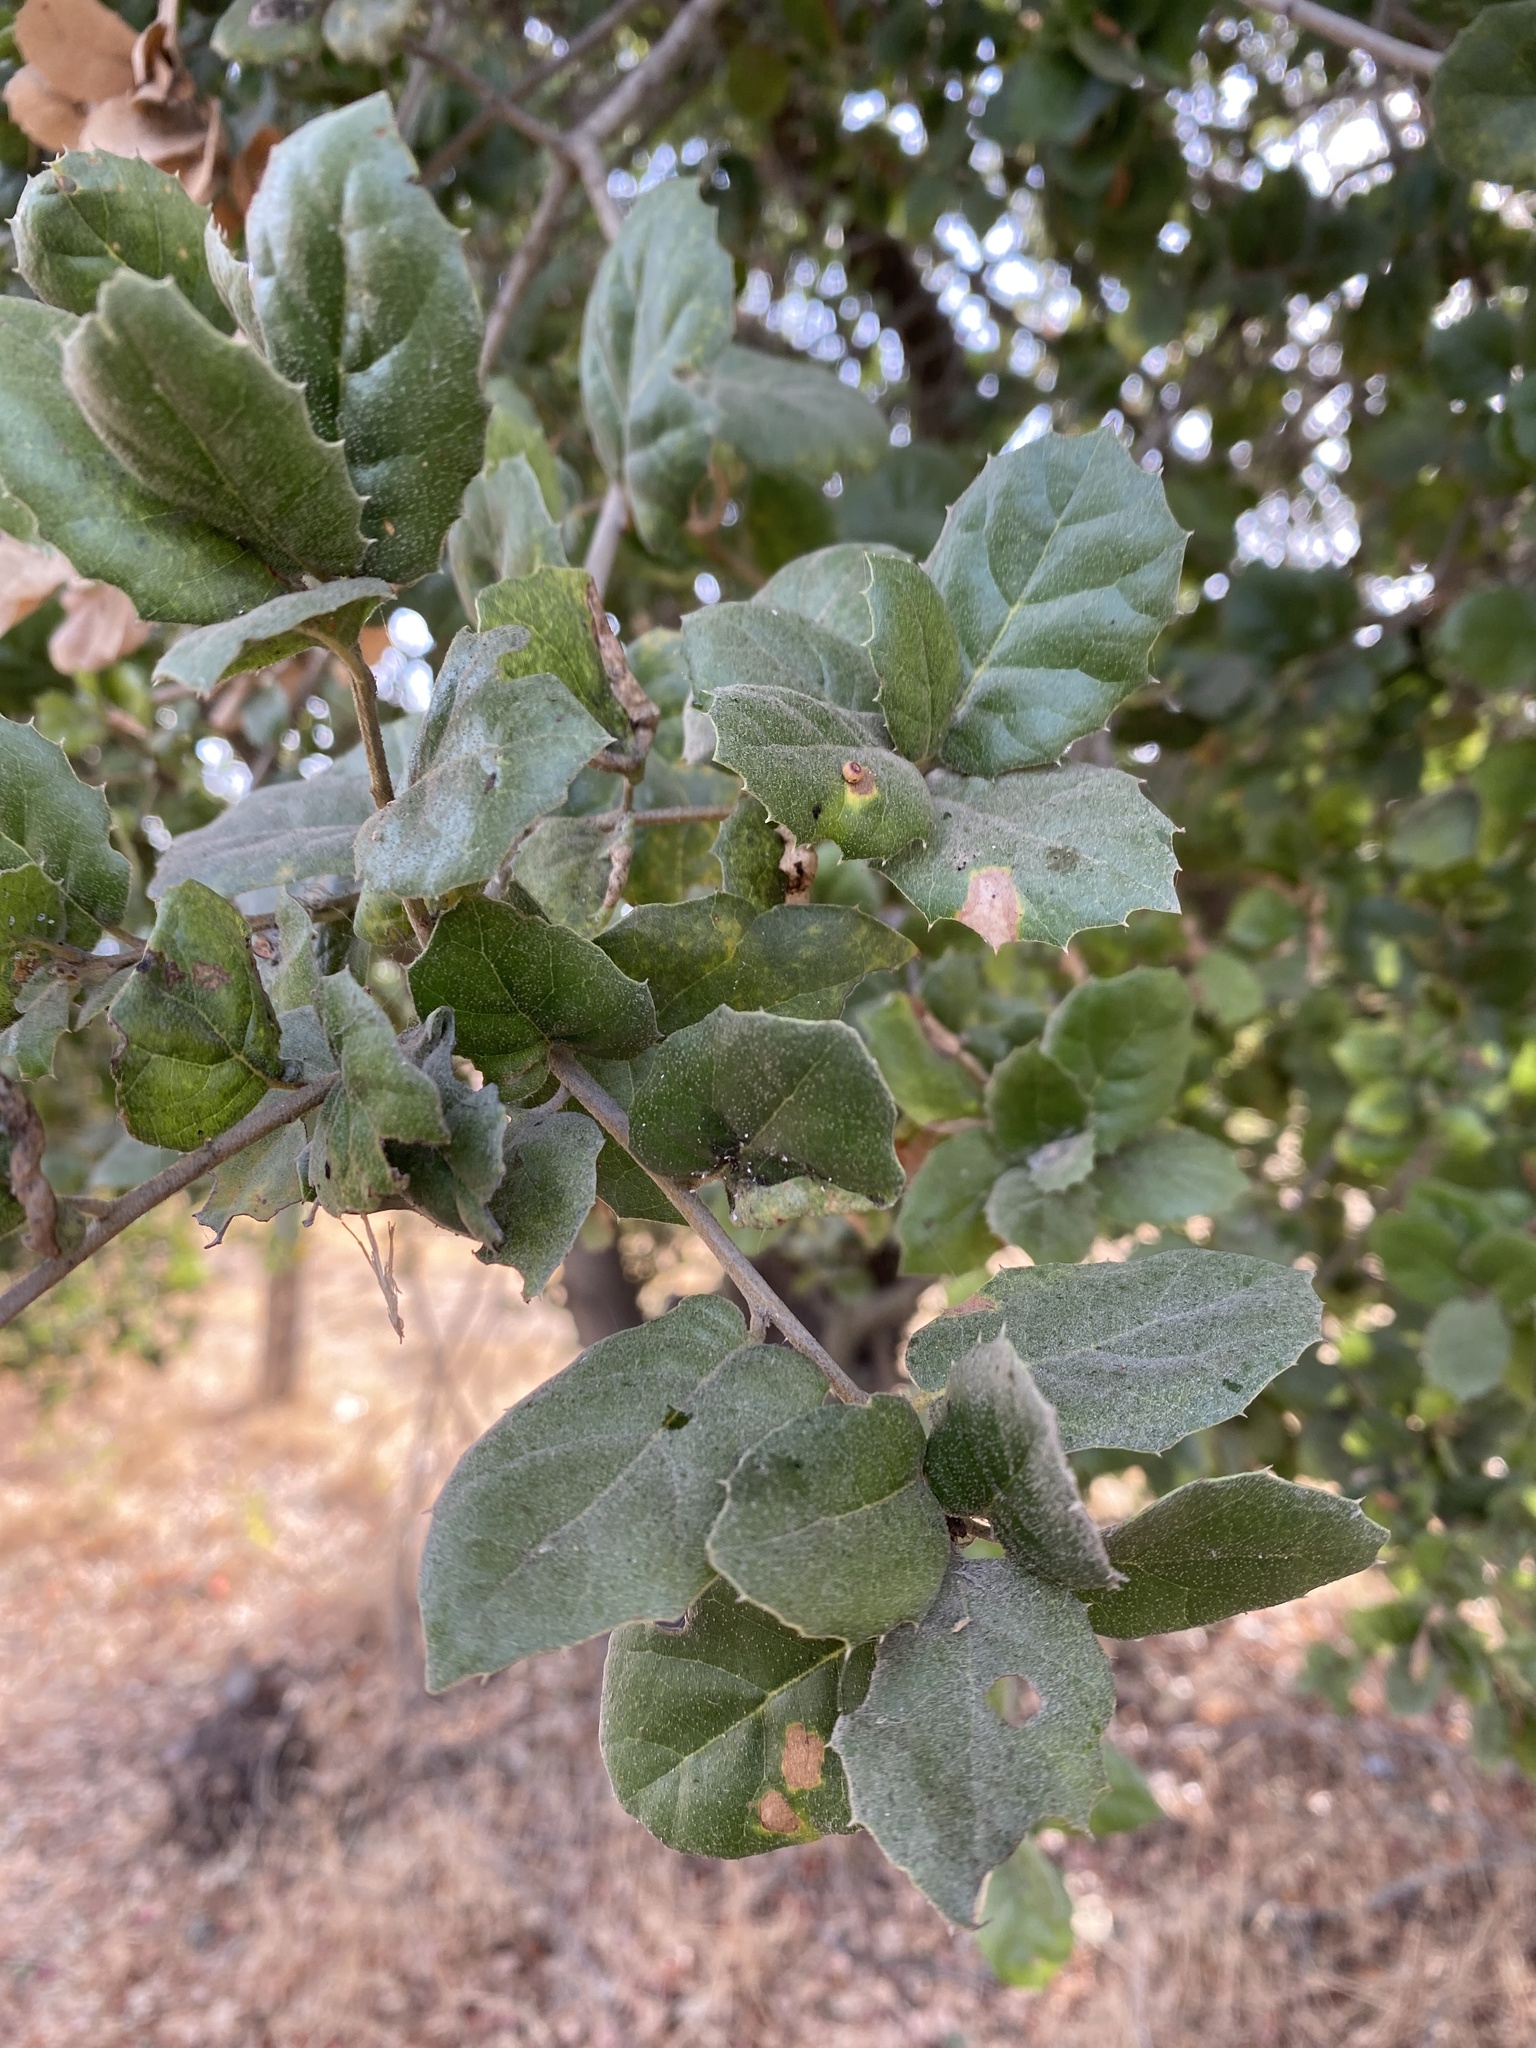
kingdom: Plantae
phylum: Tracheophyta
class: Magnoliopsida
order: Fagales
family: Fagaceae
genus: Quercus
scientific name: Quercus agrifolia
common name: California live oak
